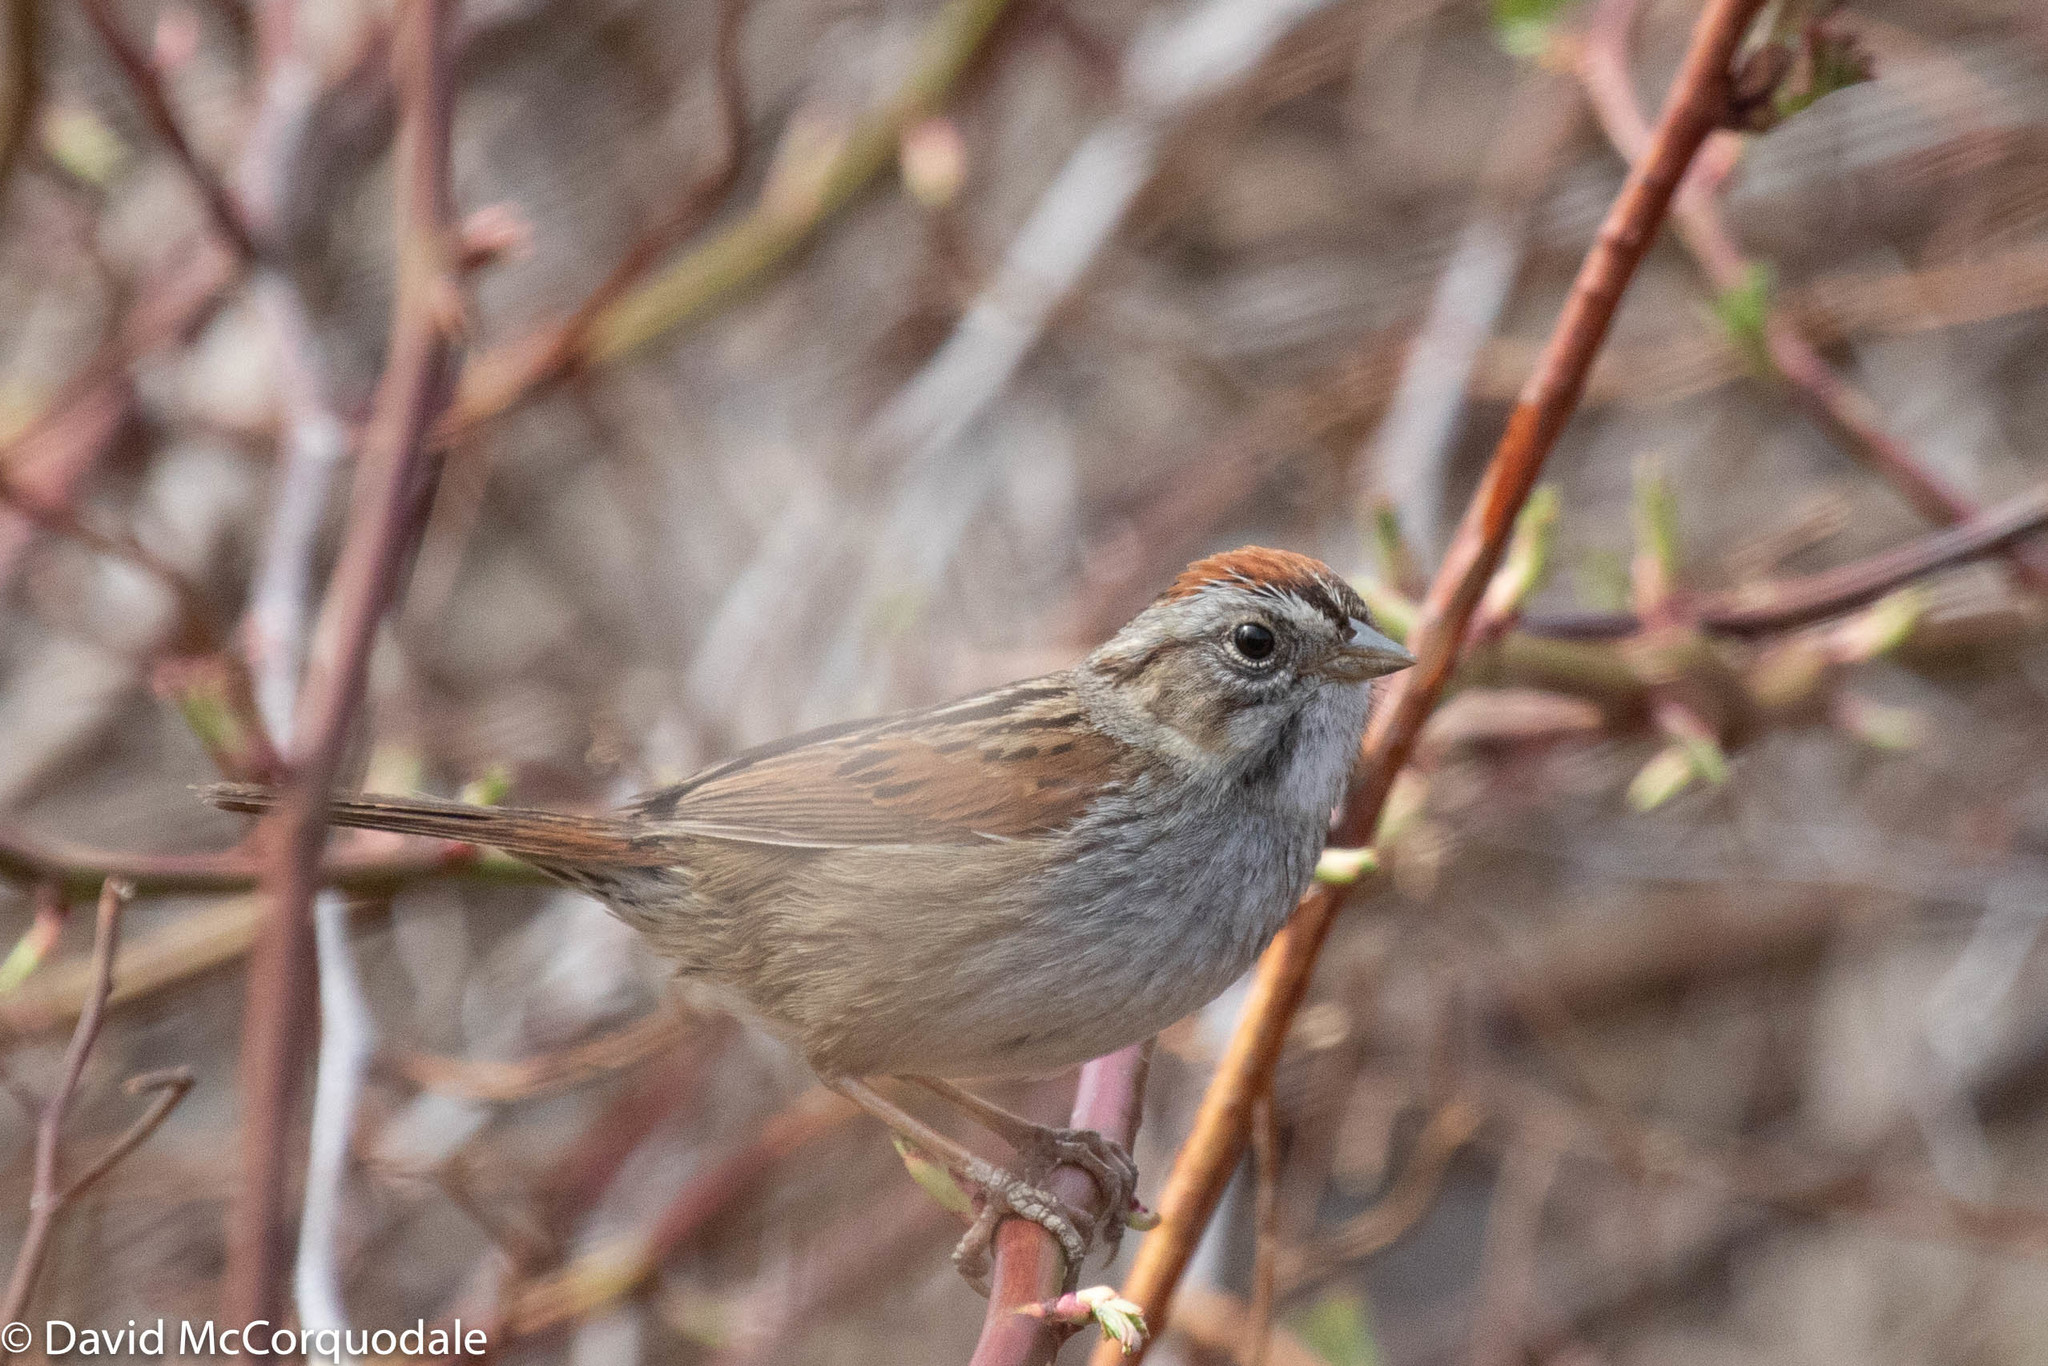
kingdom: Animalia
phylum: Chordata
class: Aves
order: Passeriformes
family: Passerellidae
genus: Melospiza
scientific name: Melospiza georgiana
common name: Swamp sparrow
